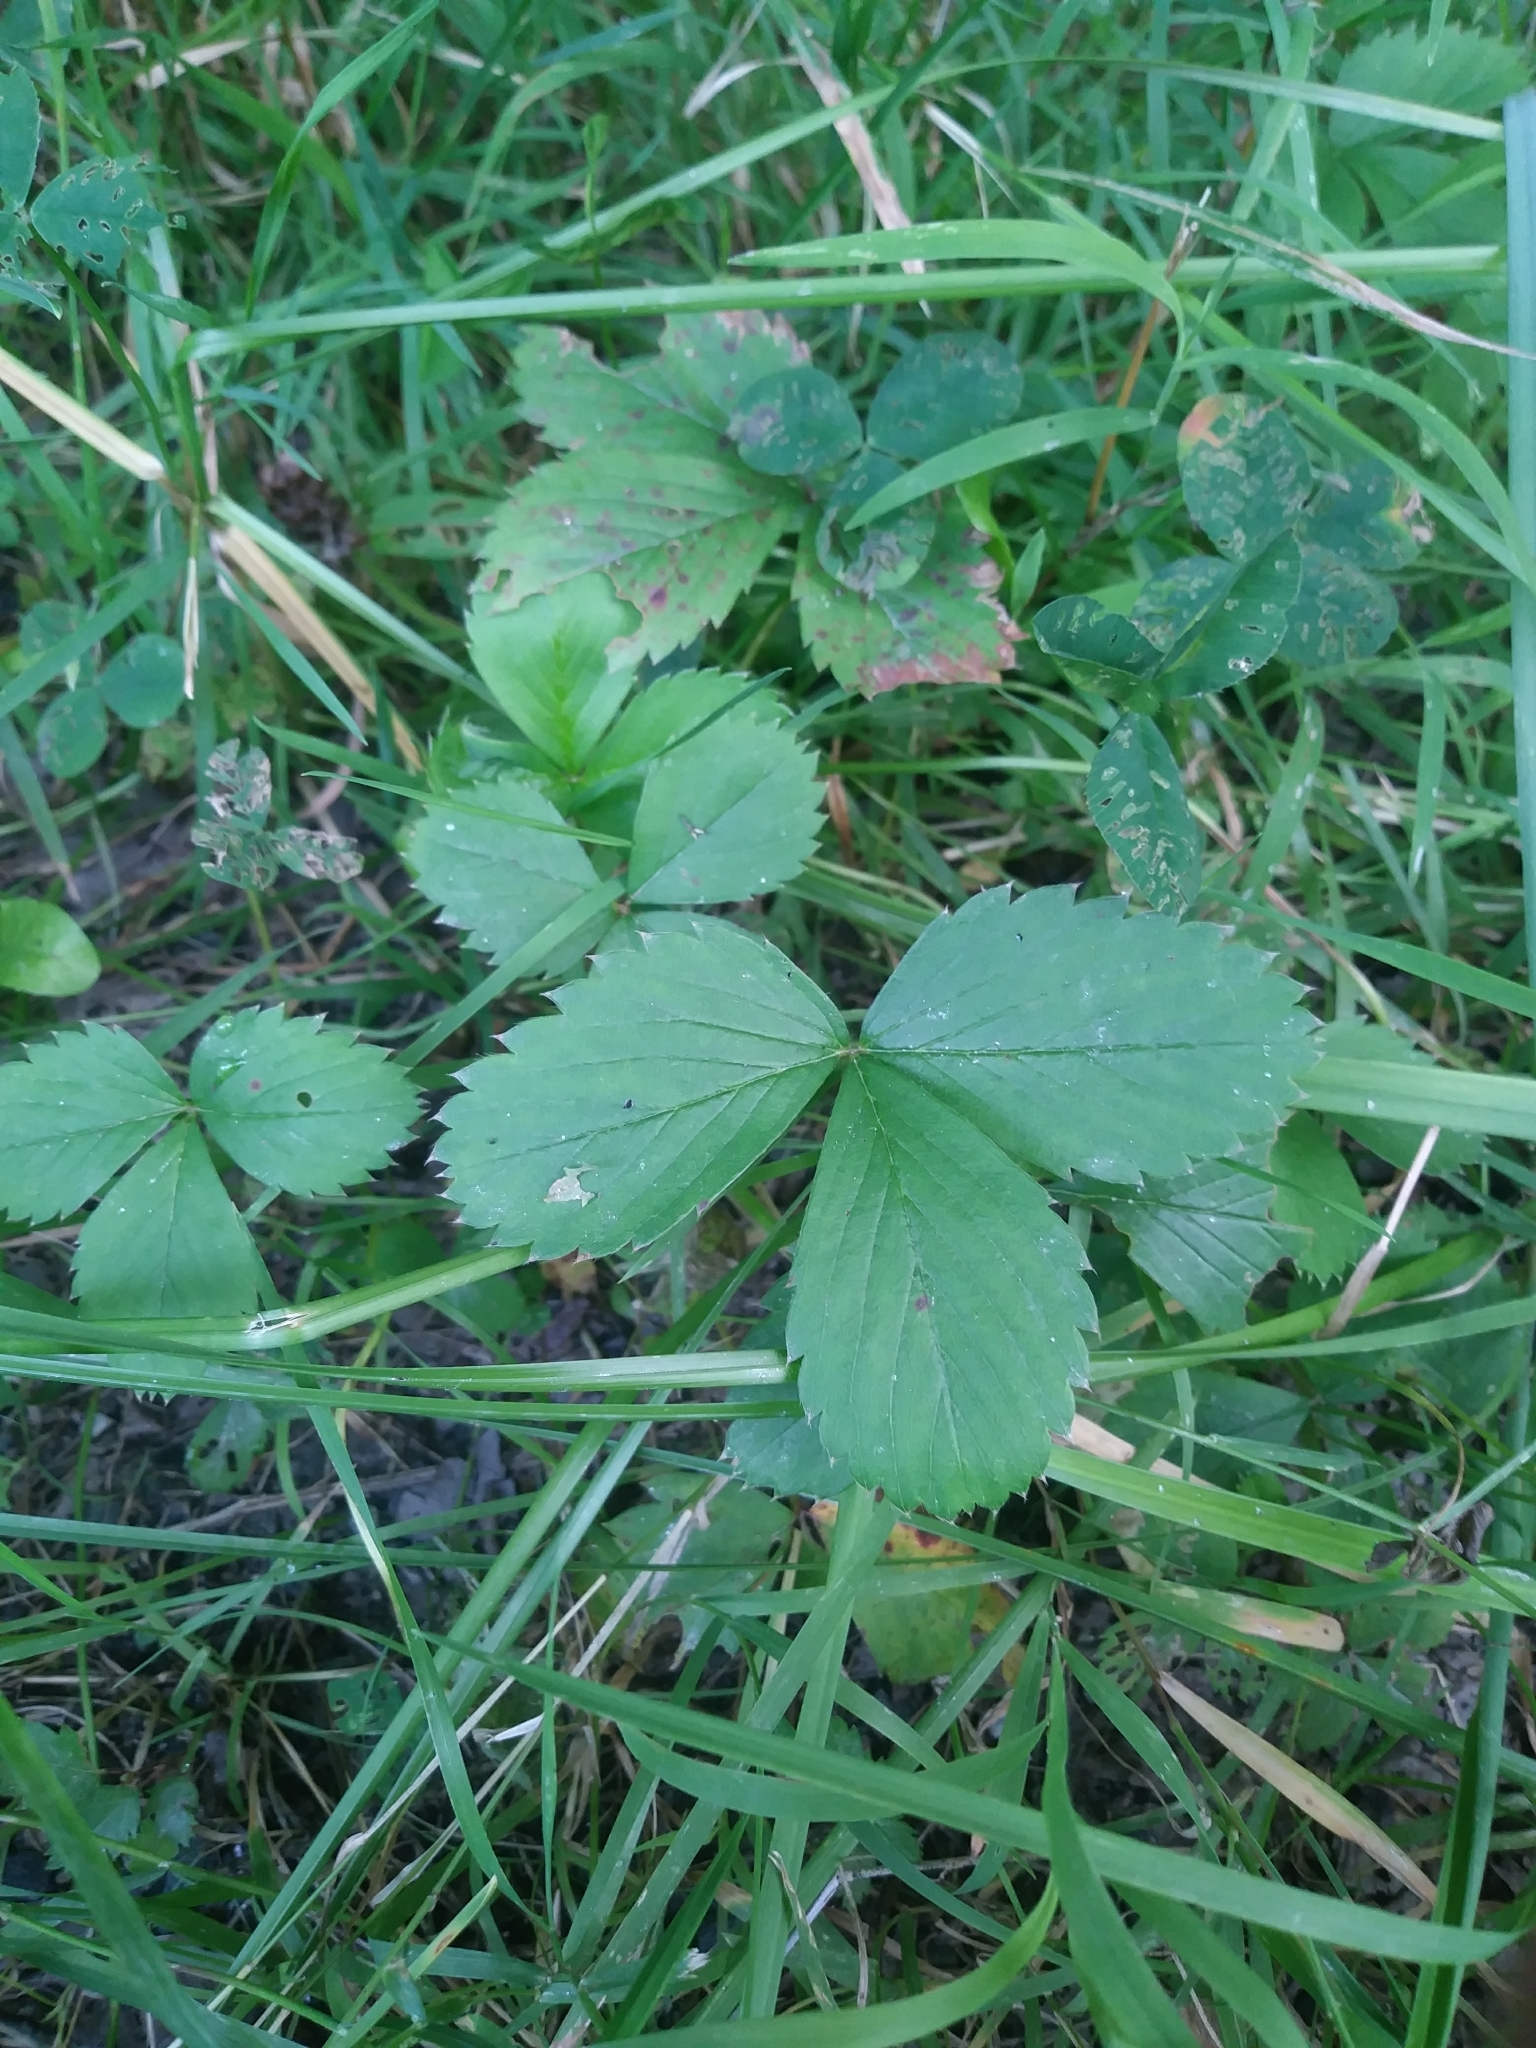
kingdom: Plantae
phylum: Tracheophyta
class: Magnoliopsida
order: Rosales
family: Rosaceae
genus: Fragaria
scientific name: Fragaria virginiana
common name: Thickleaved wild strawberry
